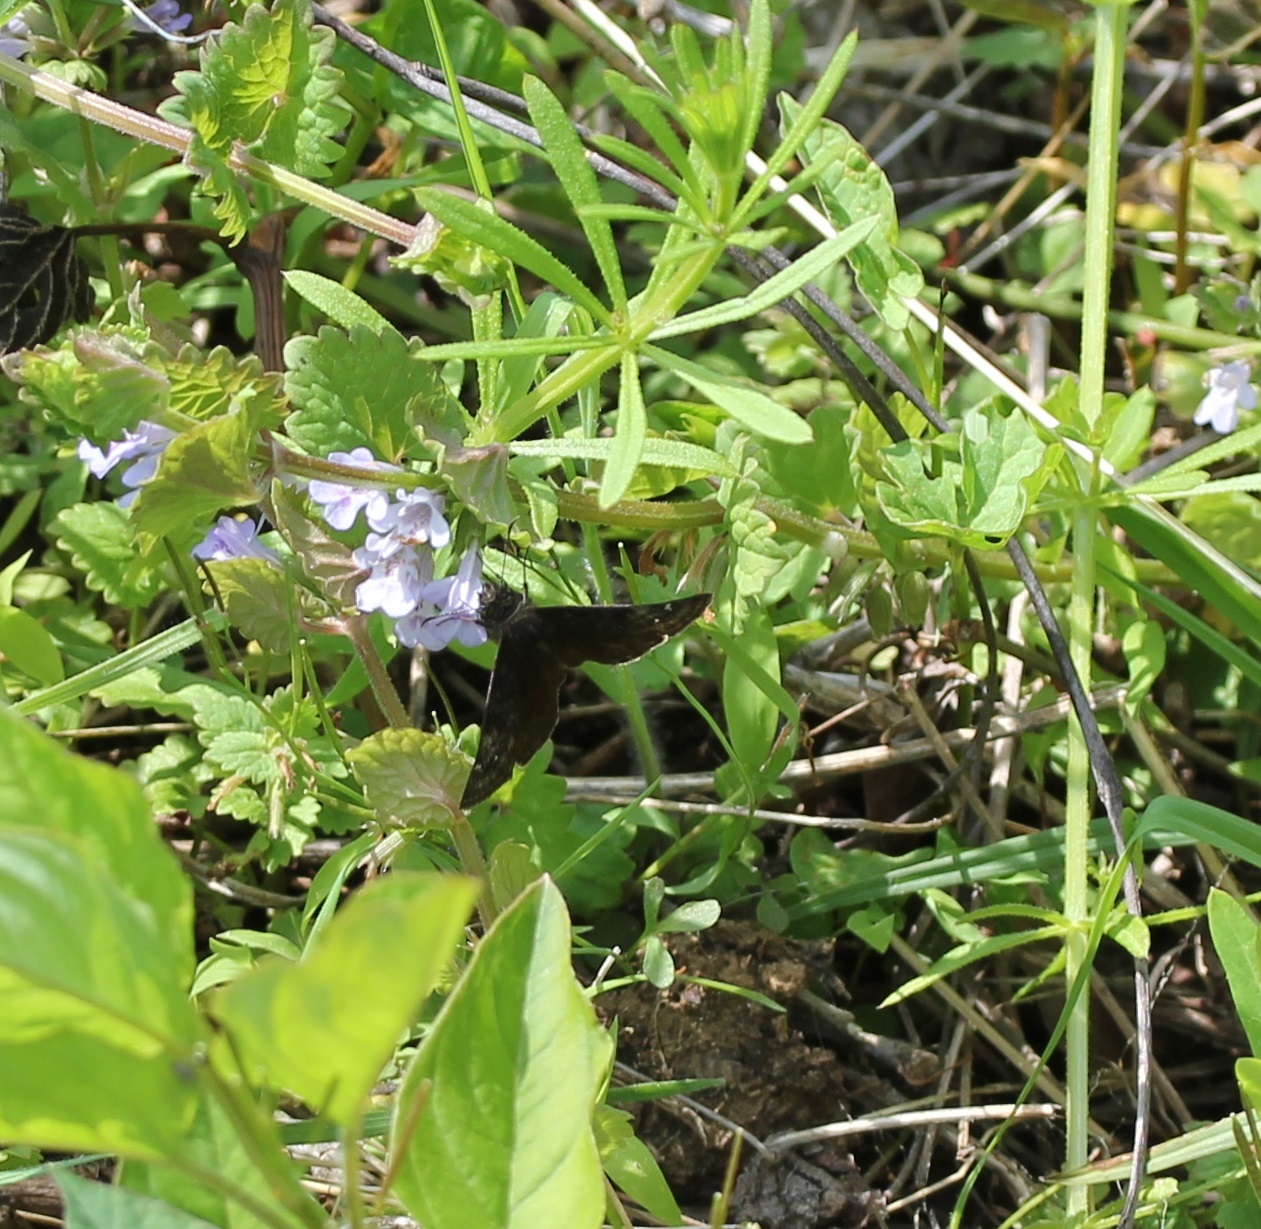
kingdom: Animalia
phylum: Arthropoda
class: Insecta
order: Lepidoptera
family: Hesperiidae
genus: Erynnis
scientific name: Erynnis baptisiae
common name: Wild indigo duskywing
